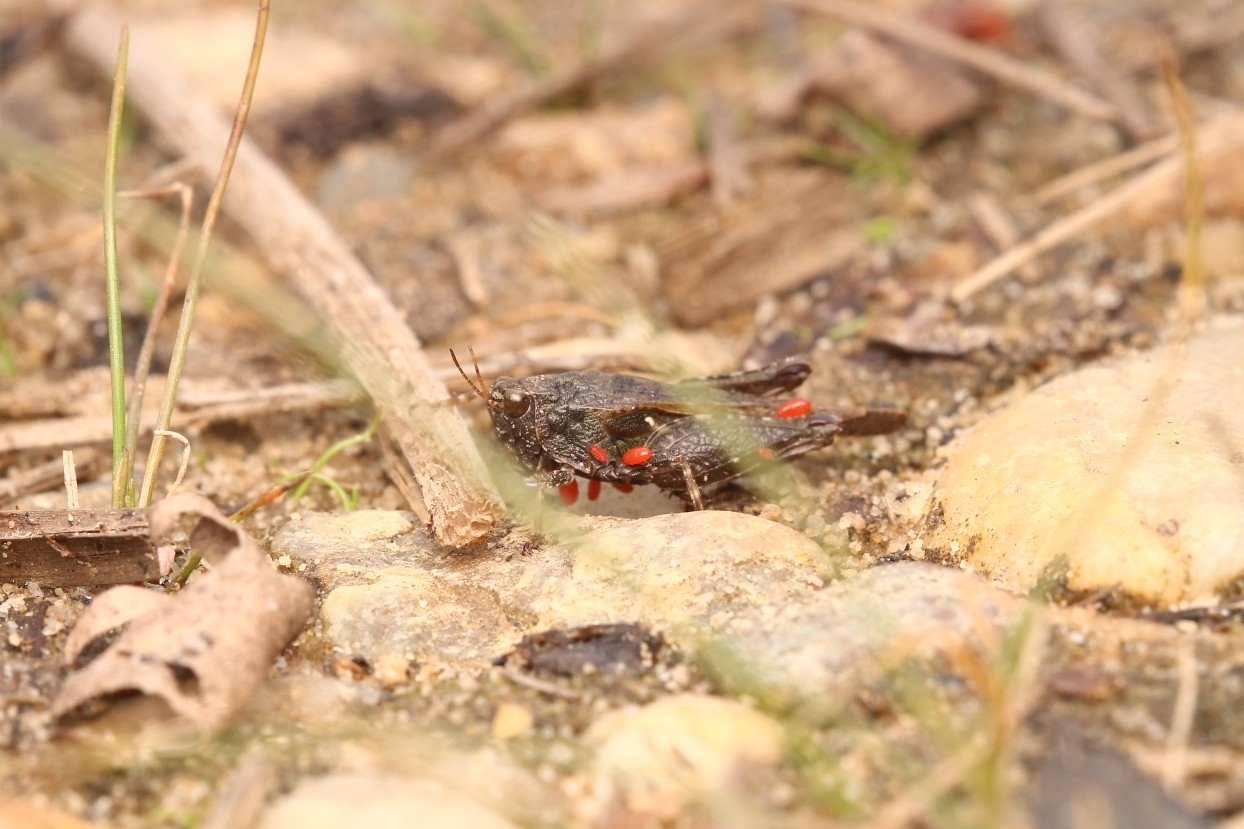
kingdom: Animalia
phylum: Arthropoda
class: Insecta
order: Orthoptera
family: Tetrigidae
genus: Tettigidea
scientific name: Tettigidea laterale
